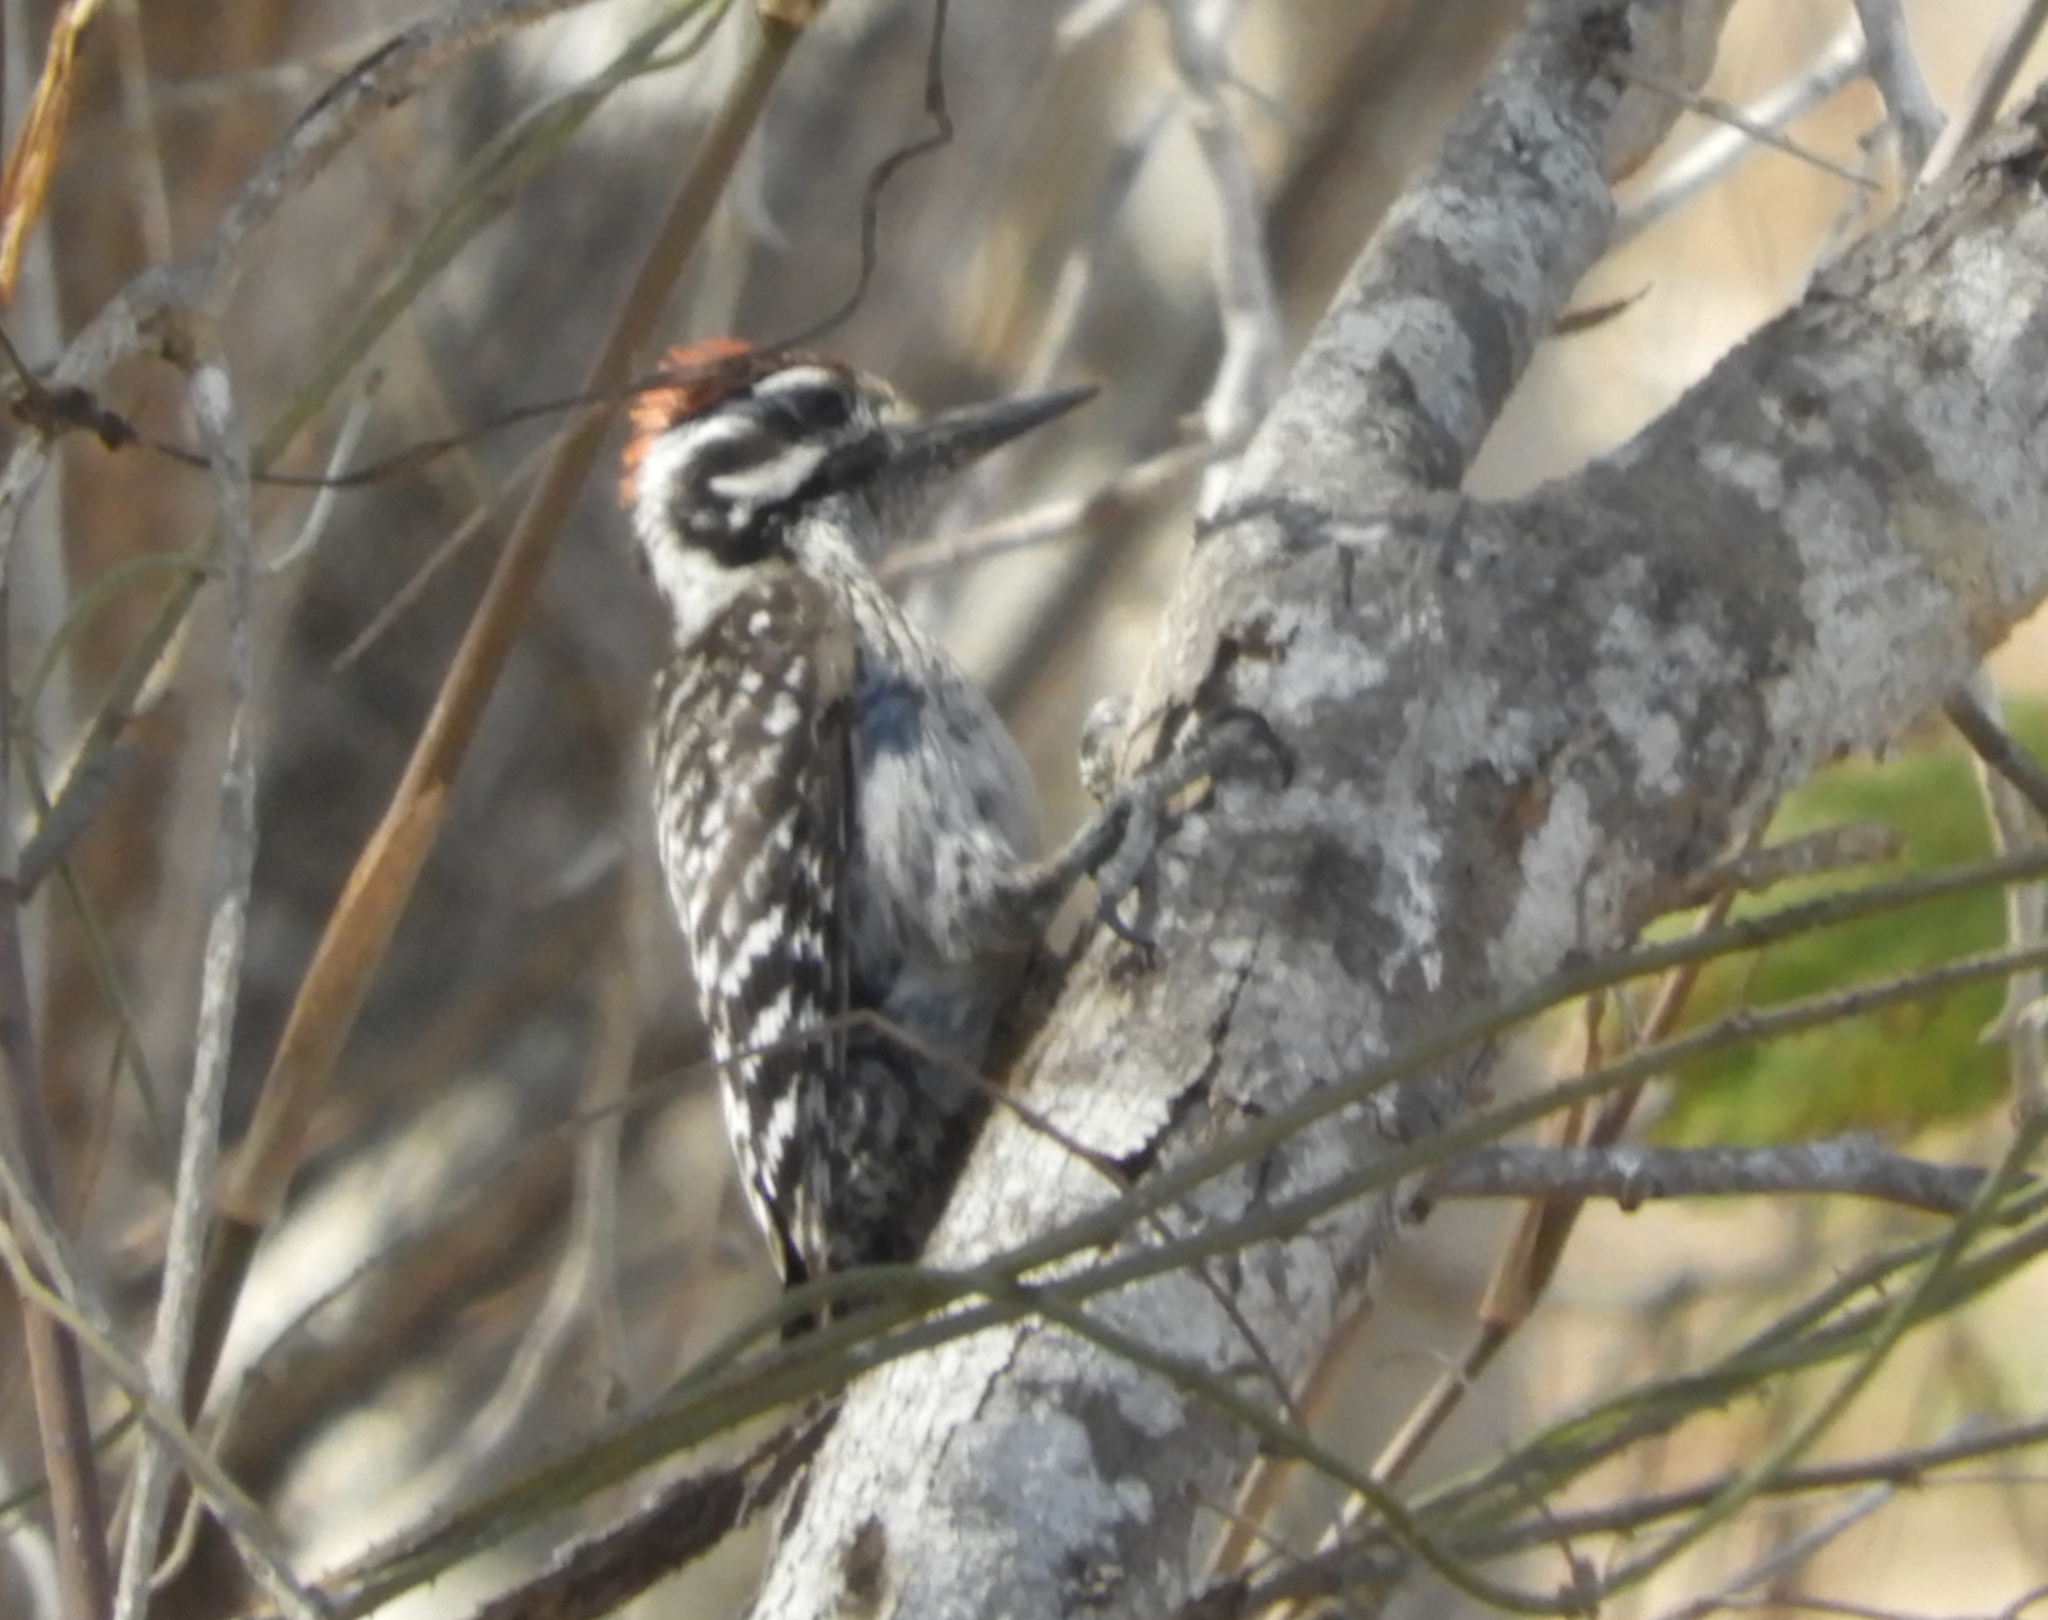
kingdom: Animalia
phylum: Chordata
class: Aves
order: Piciformes
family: Picidae
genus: Dryobates
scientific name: Dryobates scalaris
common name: Ladder-backed woodpecker
